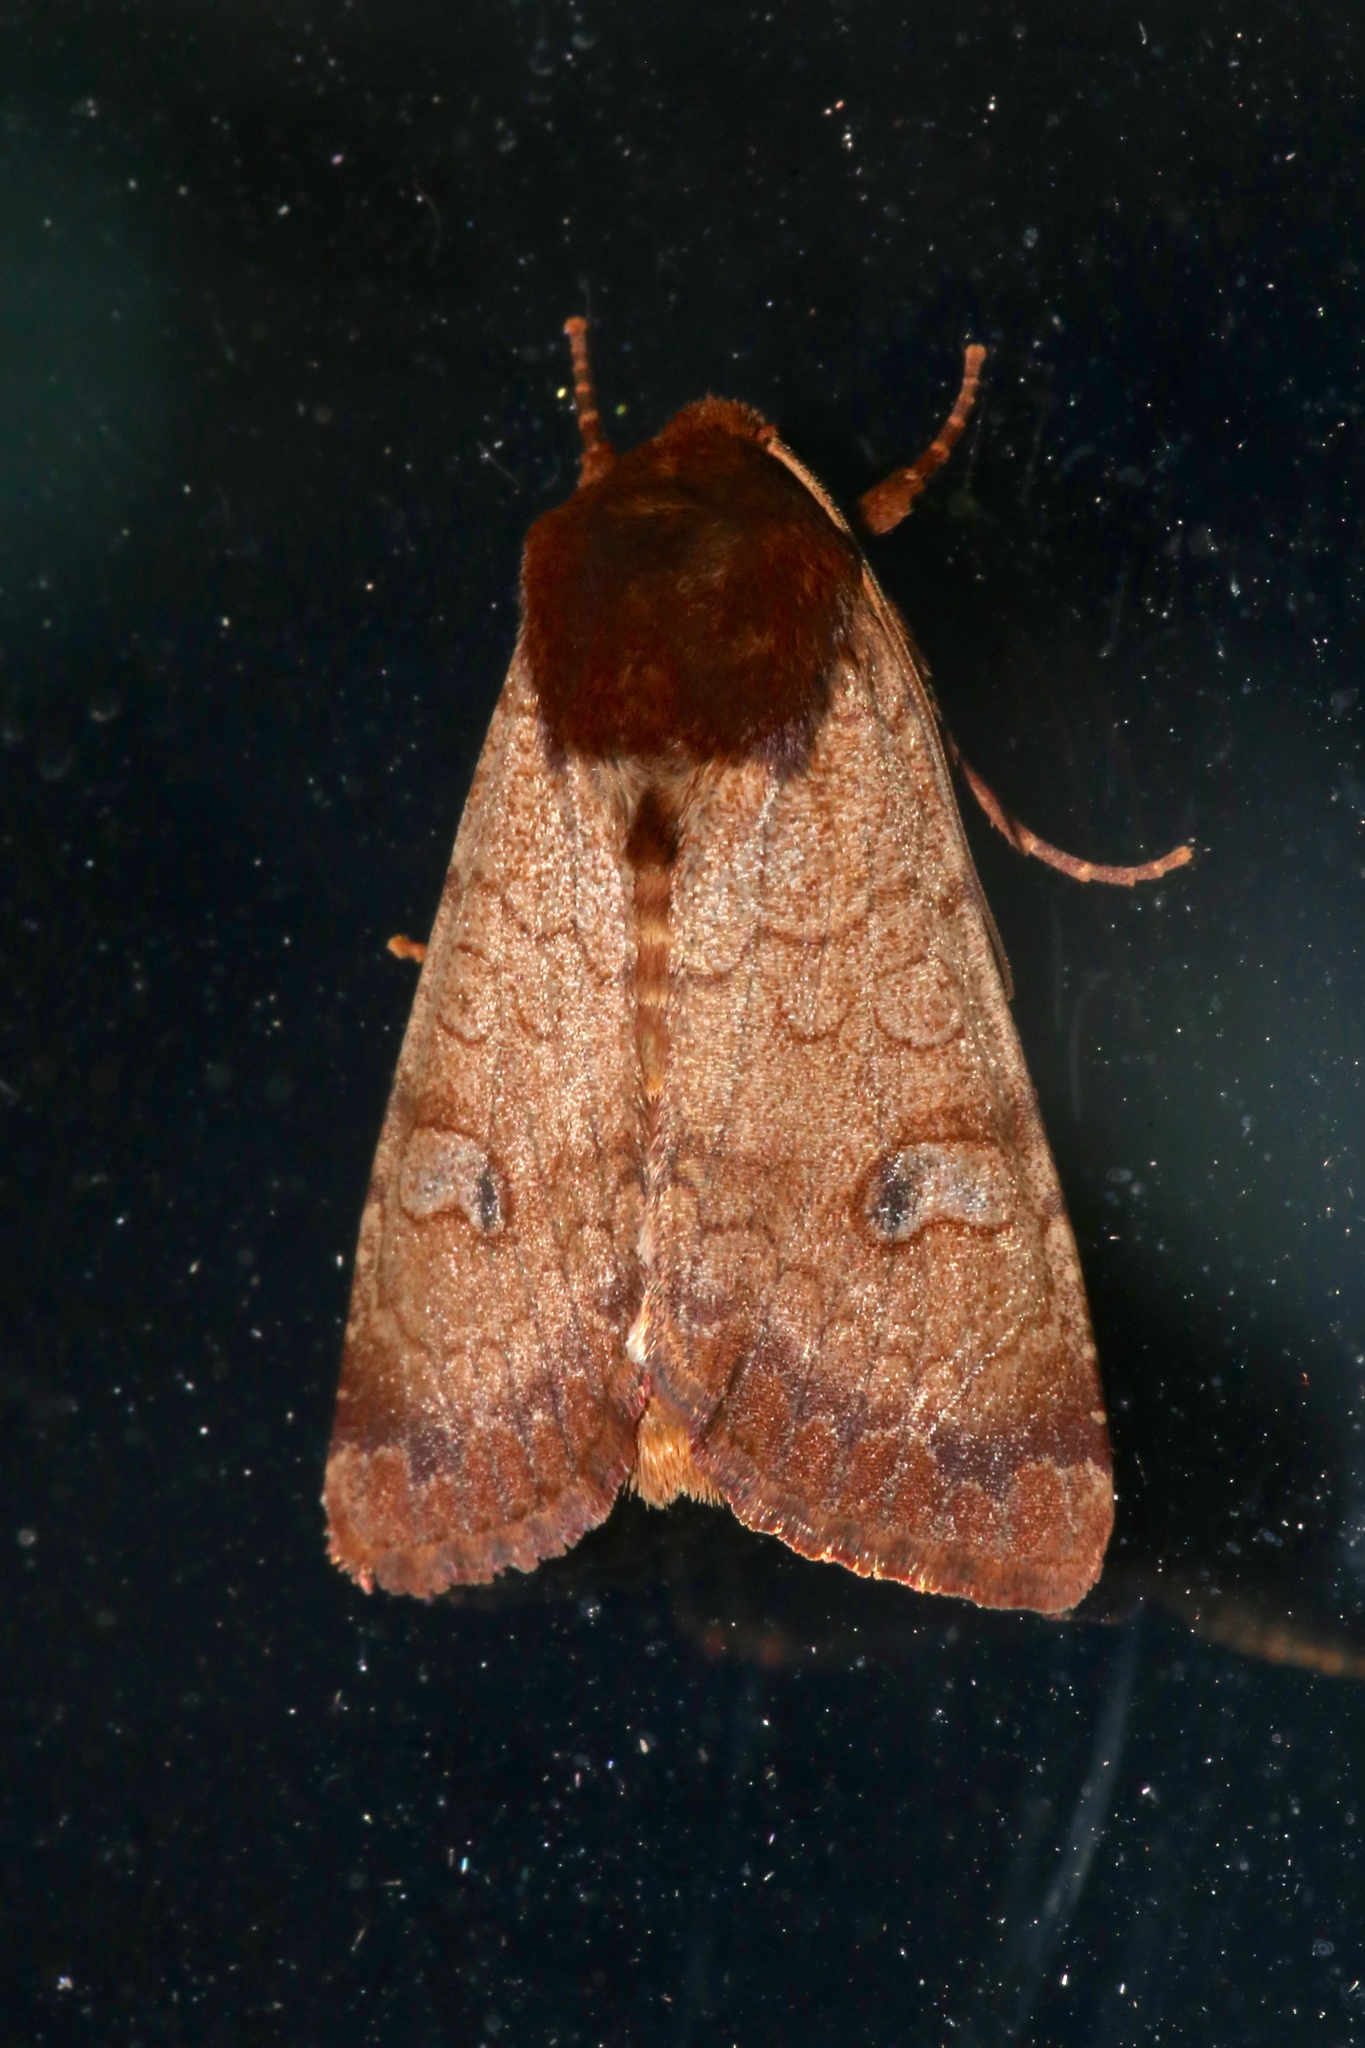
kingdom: Animalia
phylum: Arthropoda
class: Insecta
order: Lepidoptera
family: Noctuidae
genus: Sideridis
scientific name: Sideridis rosea
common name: Rosewing moth
